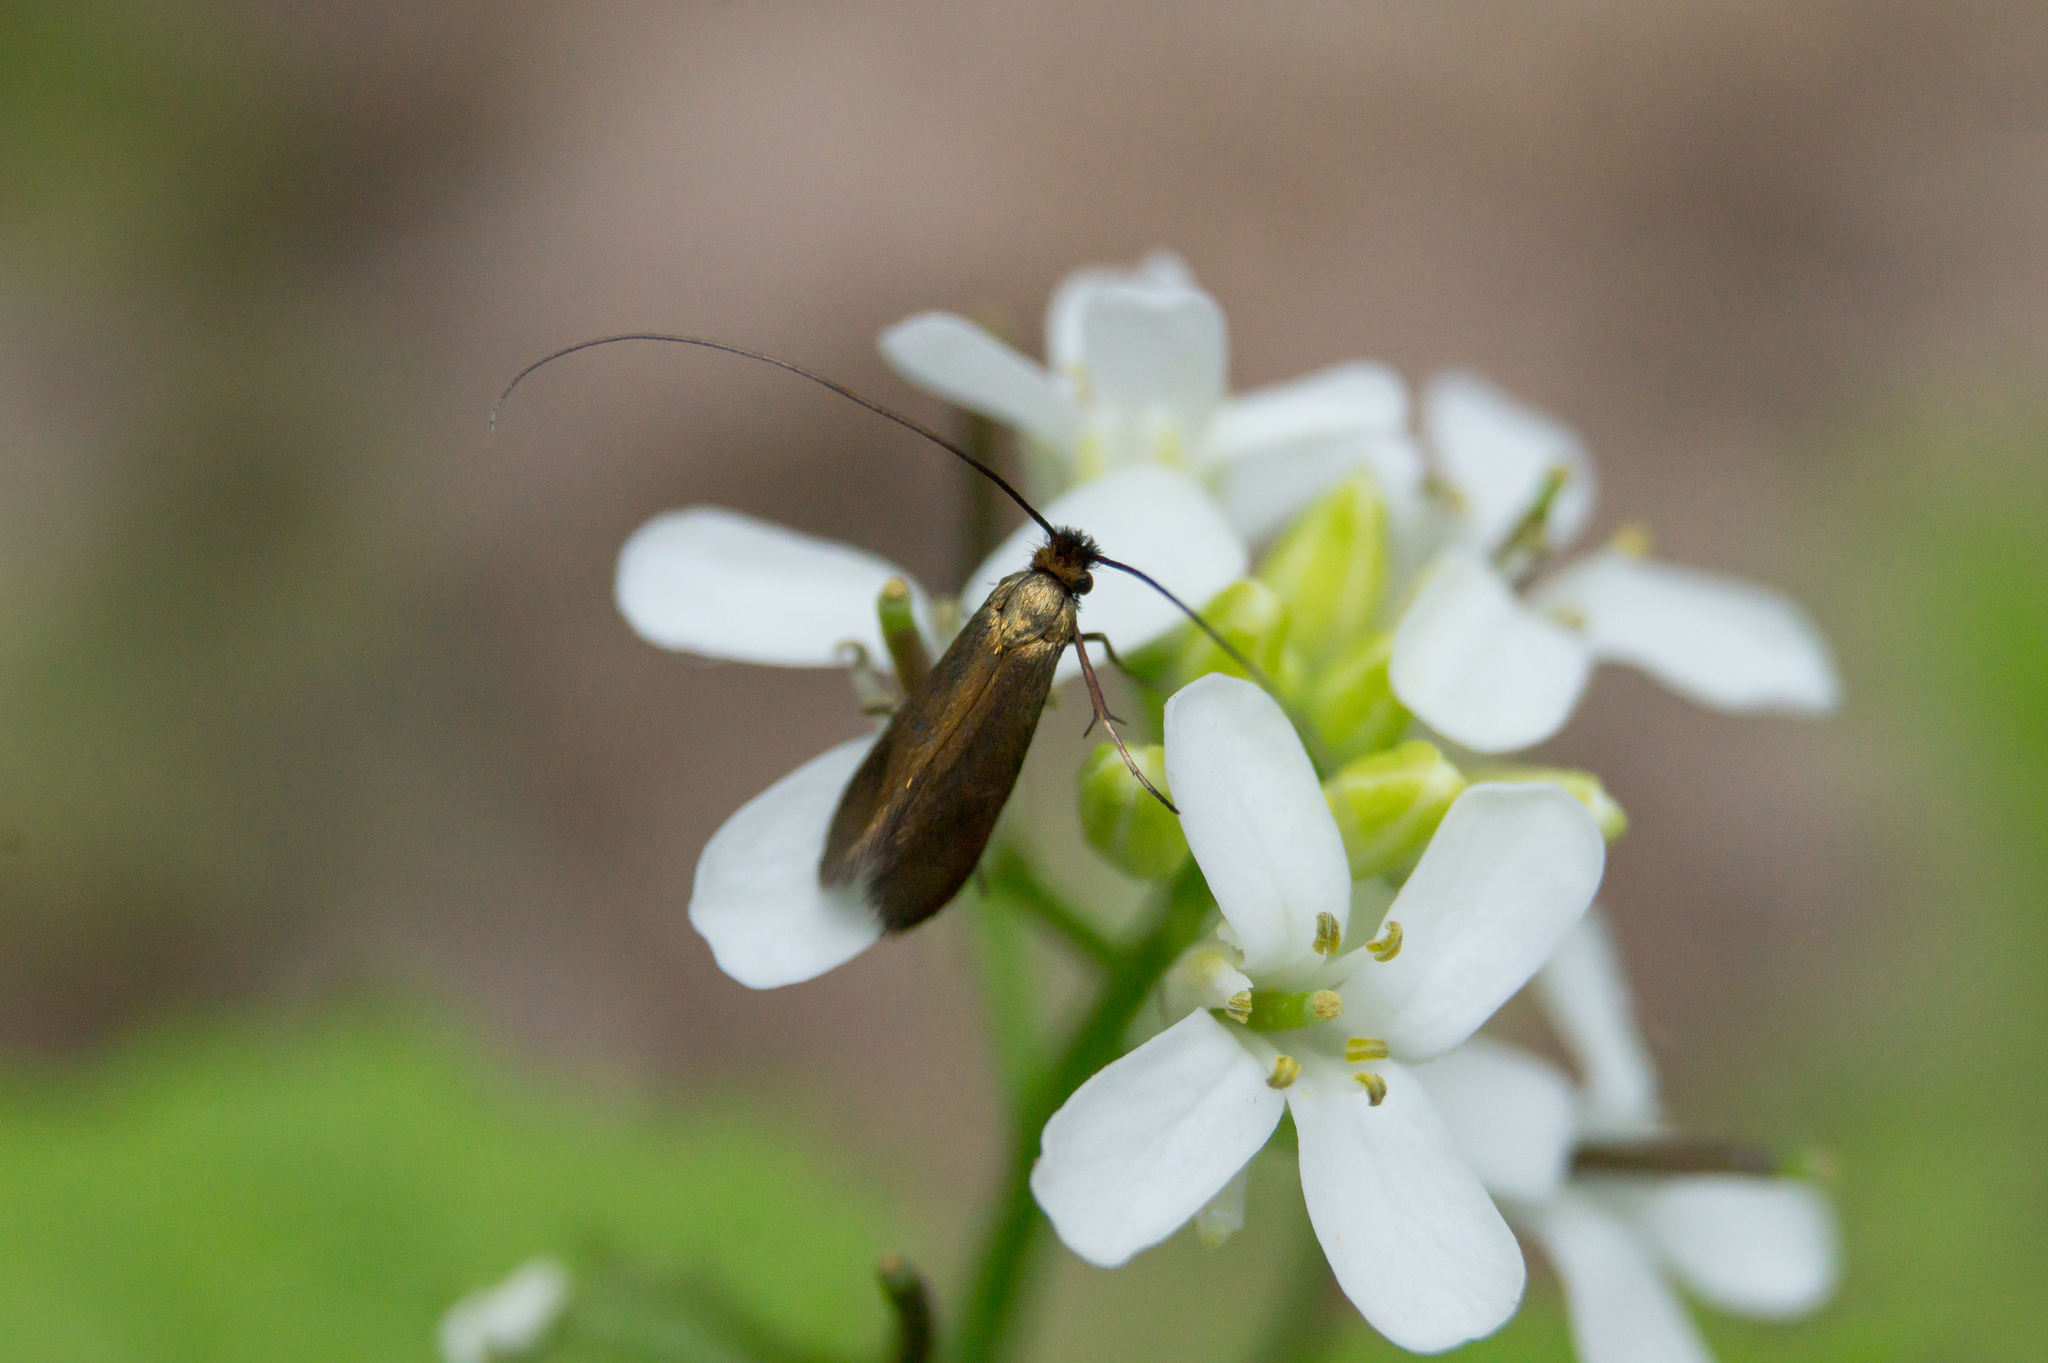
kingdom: Animalia
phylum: Arthropoda
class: Insecta
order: Lepidoptera
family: Adelidae
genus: Cauchas
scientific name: Cauchas rufimitrella
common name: Meadow long-horn
